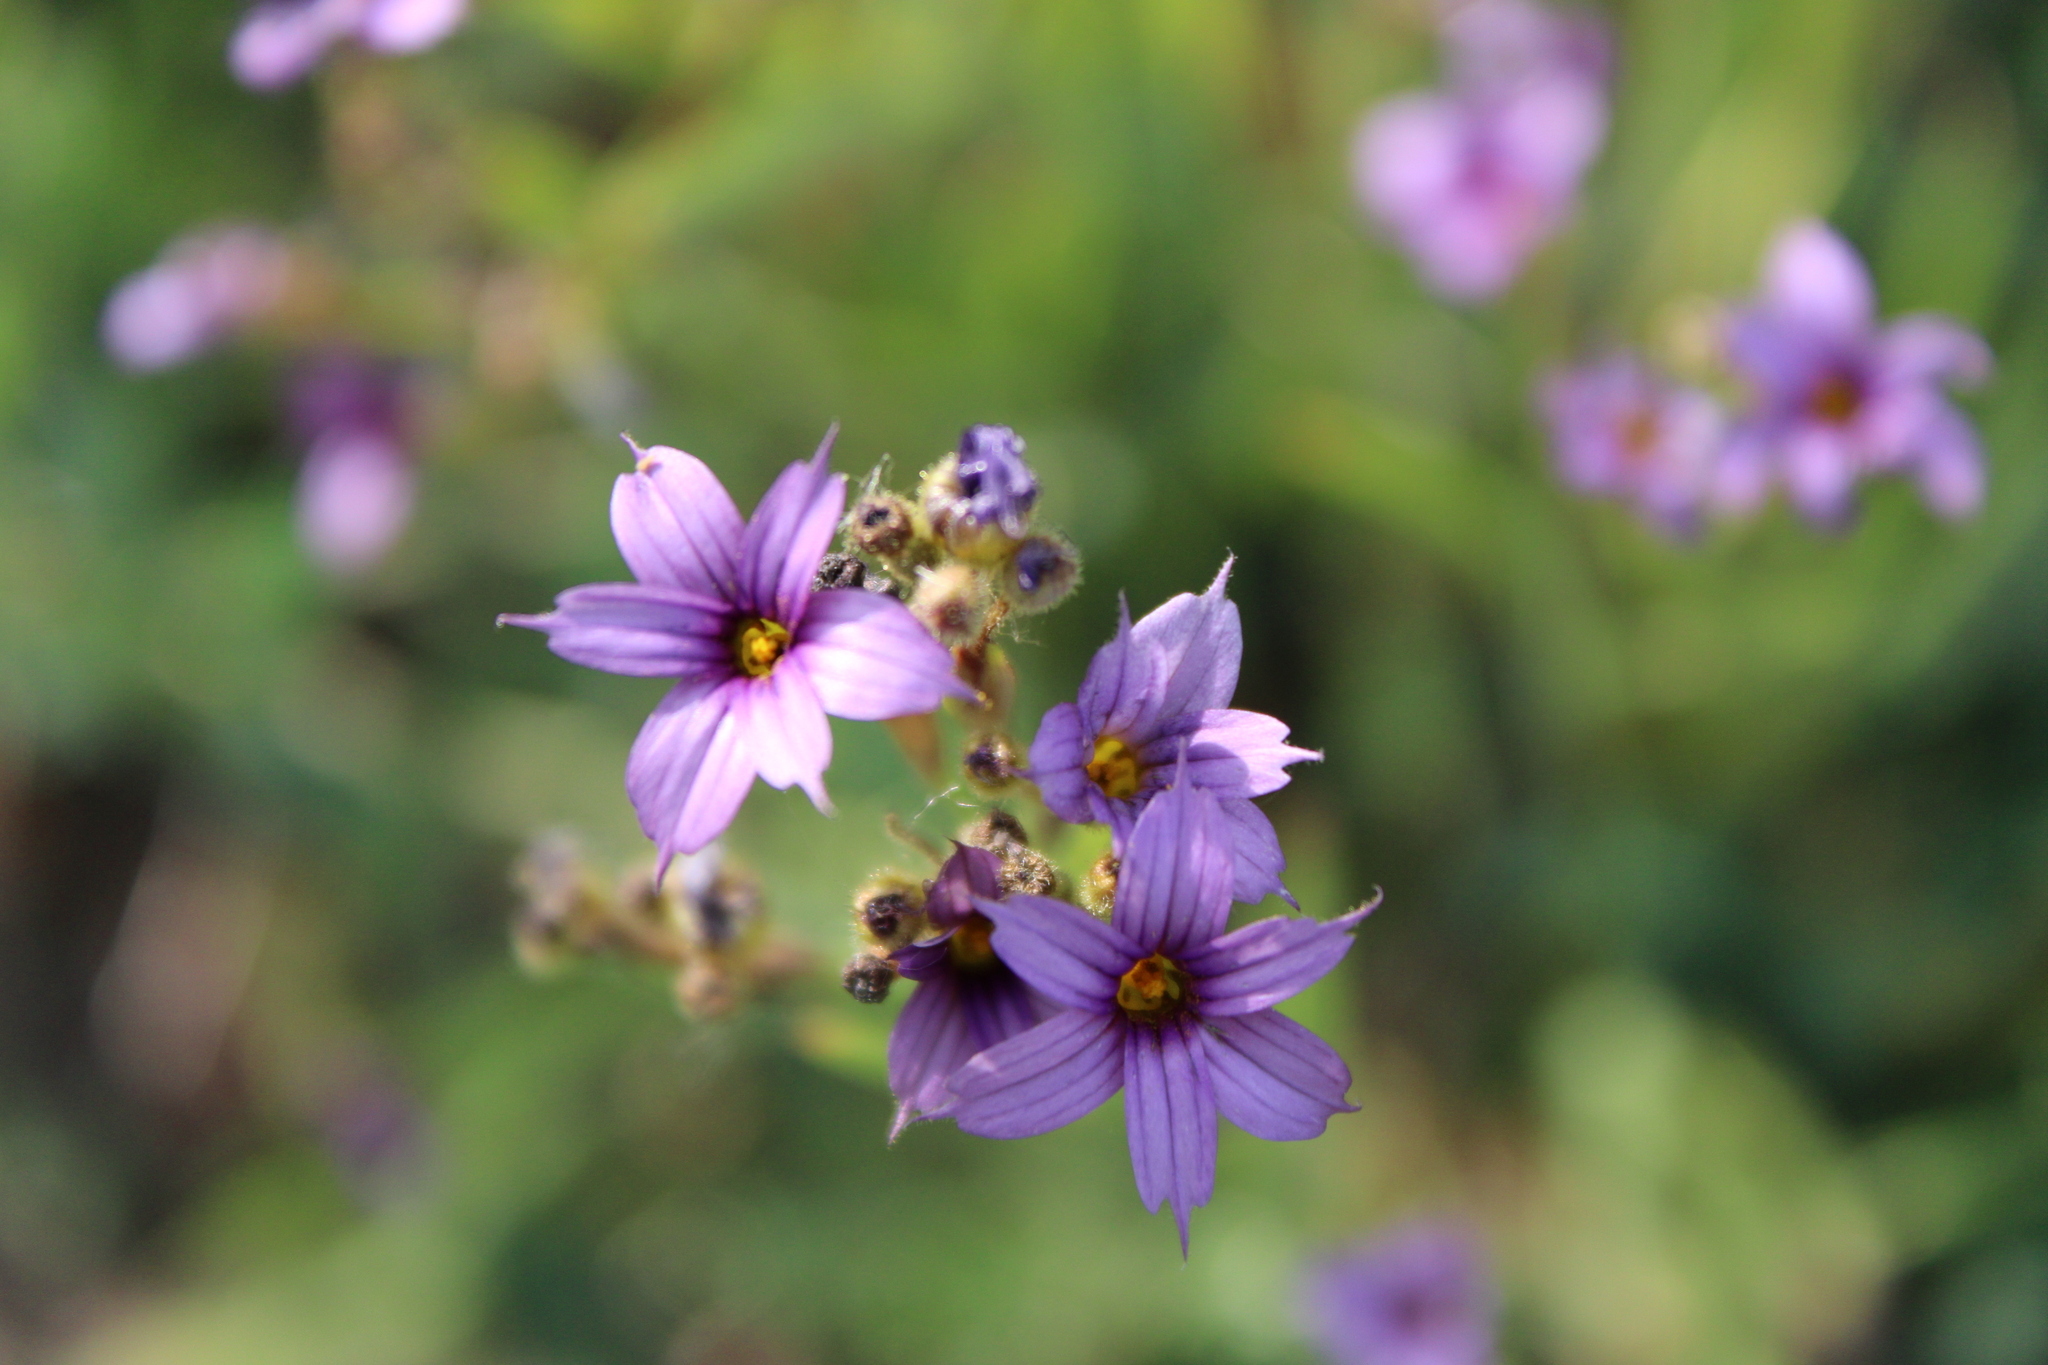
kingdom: Plantae
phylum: Tracheophyta
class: Liliopsida
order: Asparagales
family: Iridaceae
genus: Sisyrinchium
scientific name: Sisyrinchium platense
